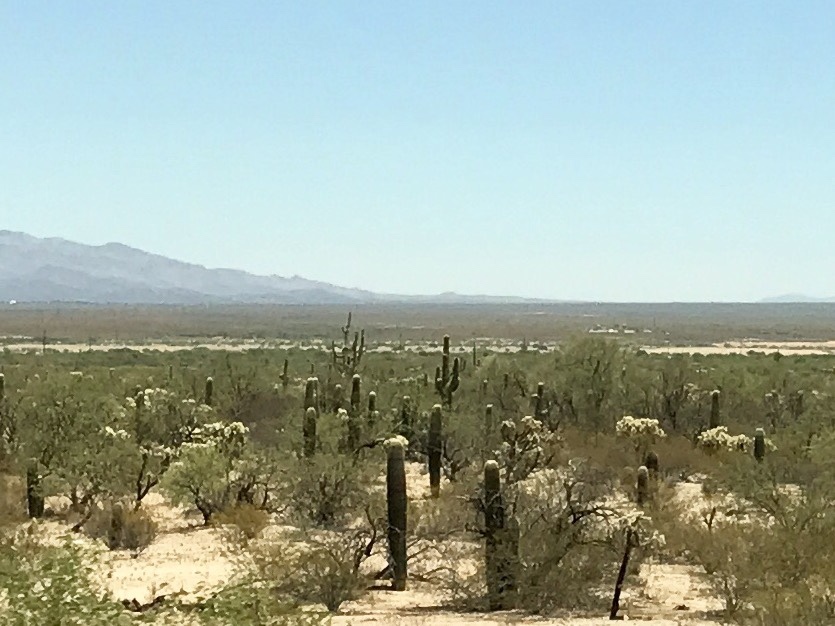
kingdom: Plantae
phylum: Tracheophyta
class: Magnoliopsida
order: Caryophyllales
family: Cactaceae
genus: Carnegiea
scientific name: Carnegiea gigantea
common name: Saguaro
